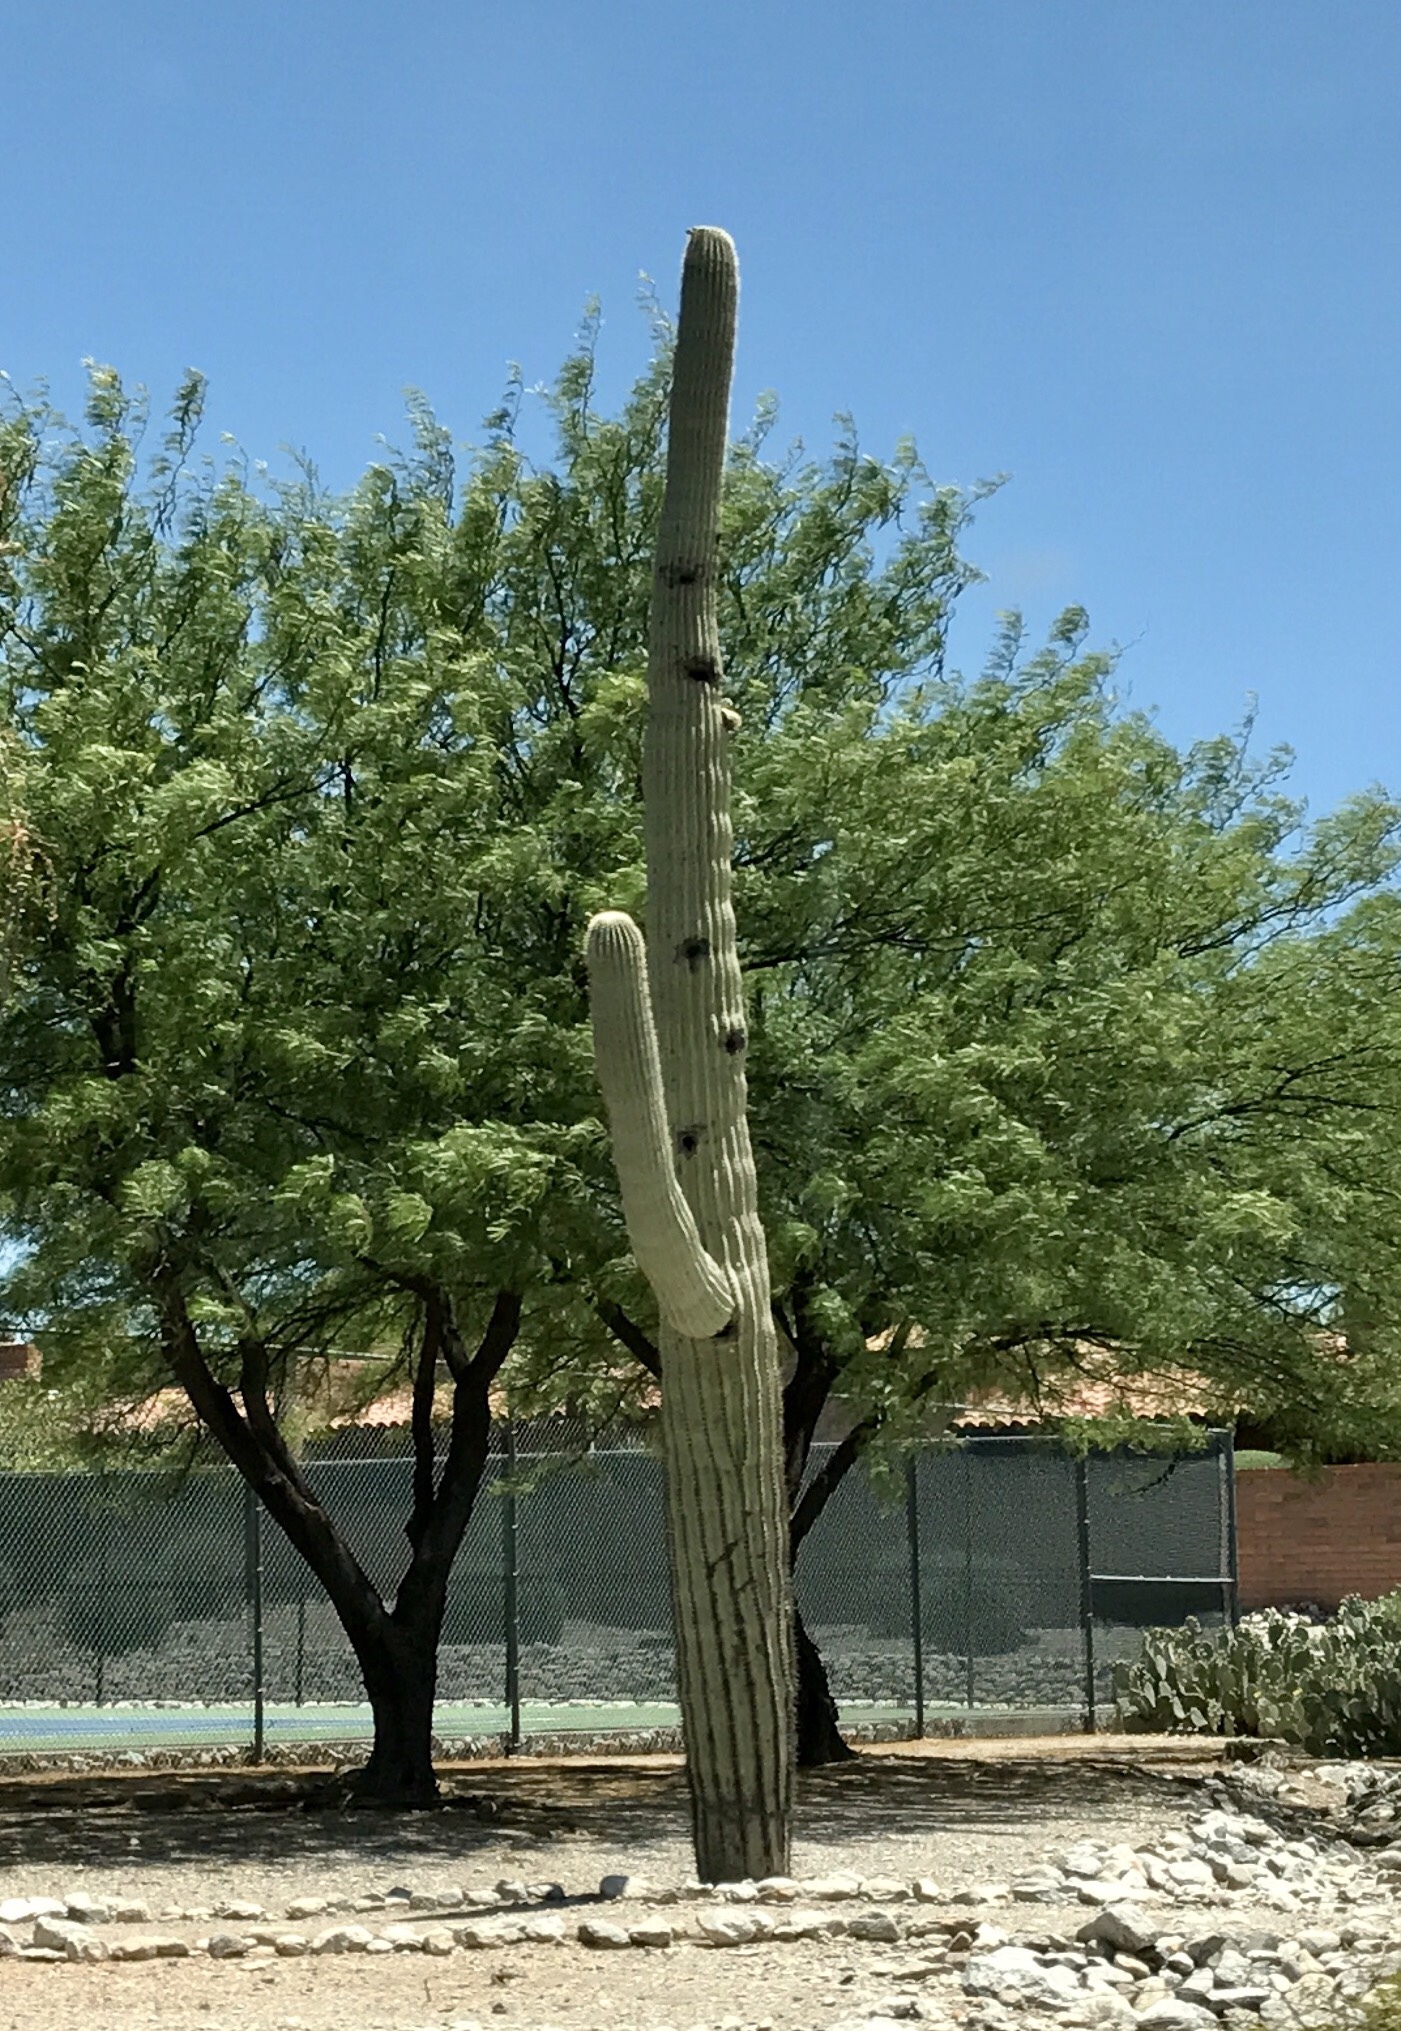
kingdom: Plantae
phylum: Tracheophyta
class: Magnoliopsida
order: Caryophyllales
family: Cactaceae
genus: Carnegiea
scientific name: Carnegiea gigantea
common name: Saguaro
